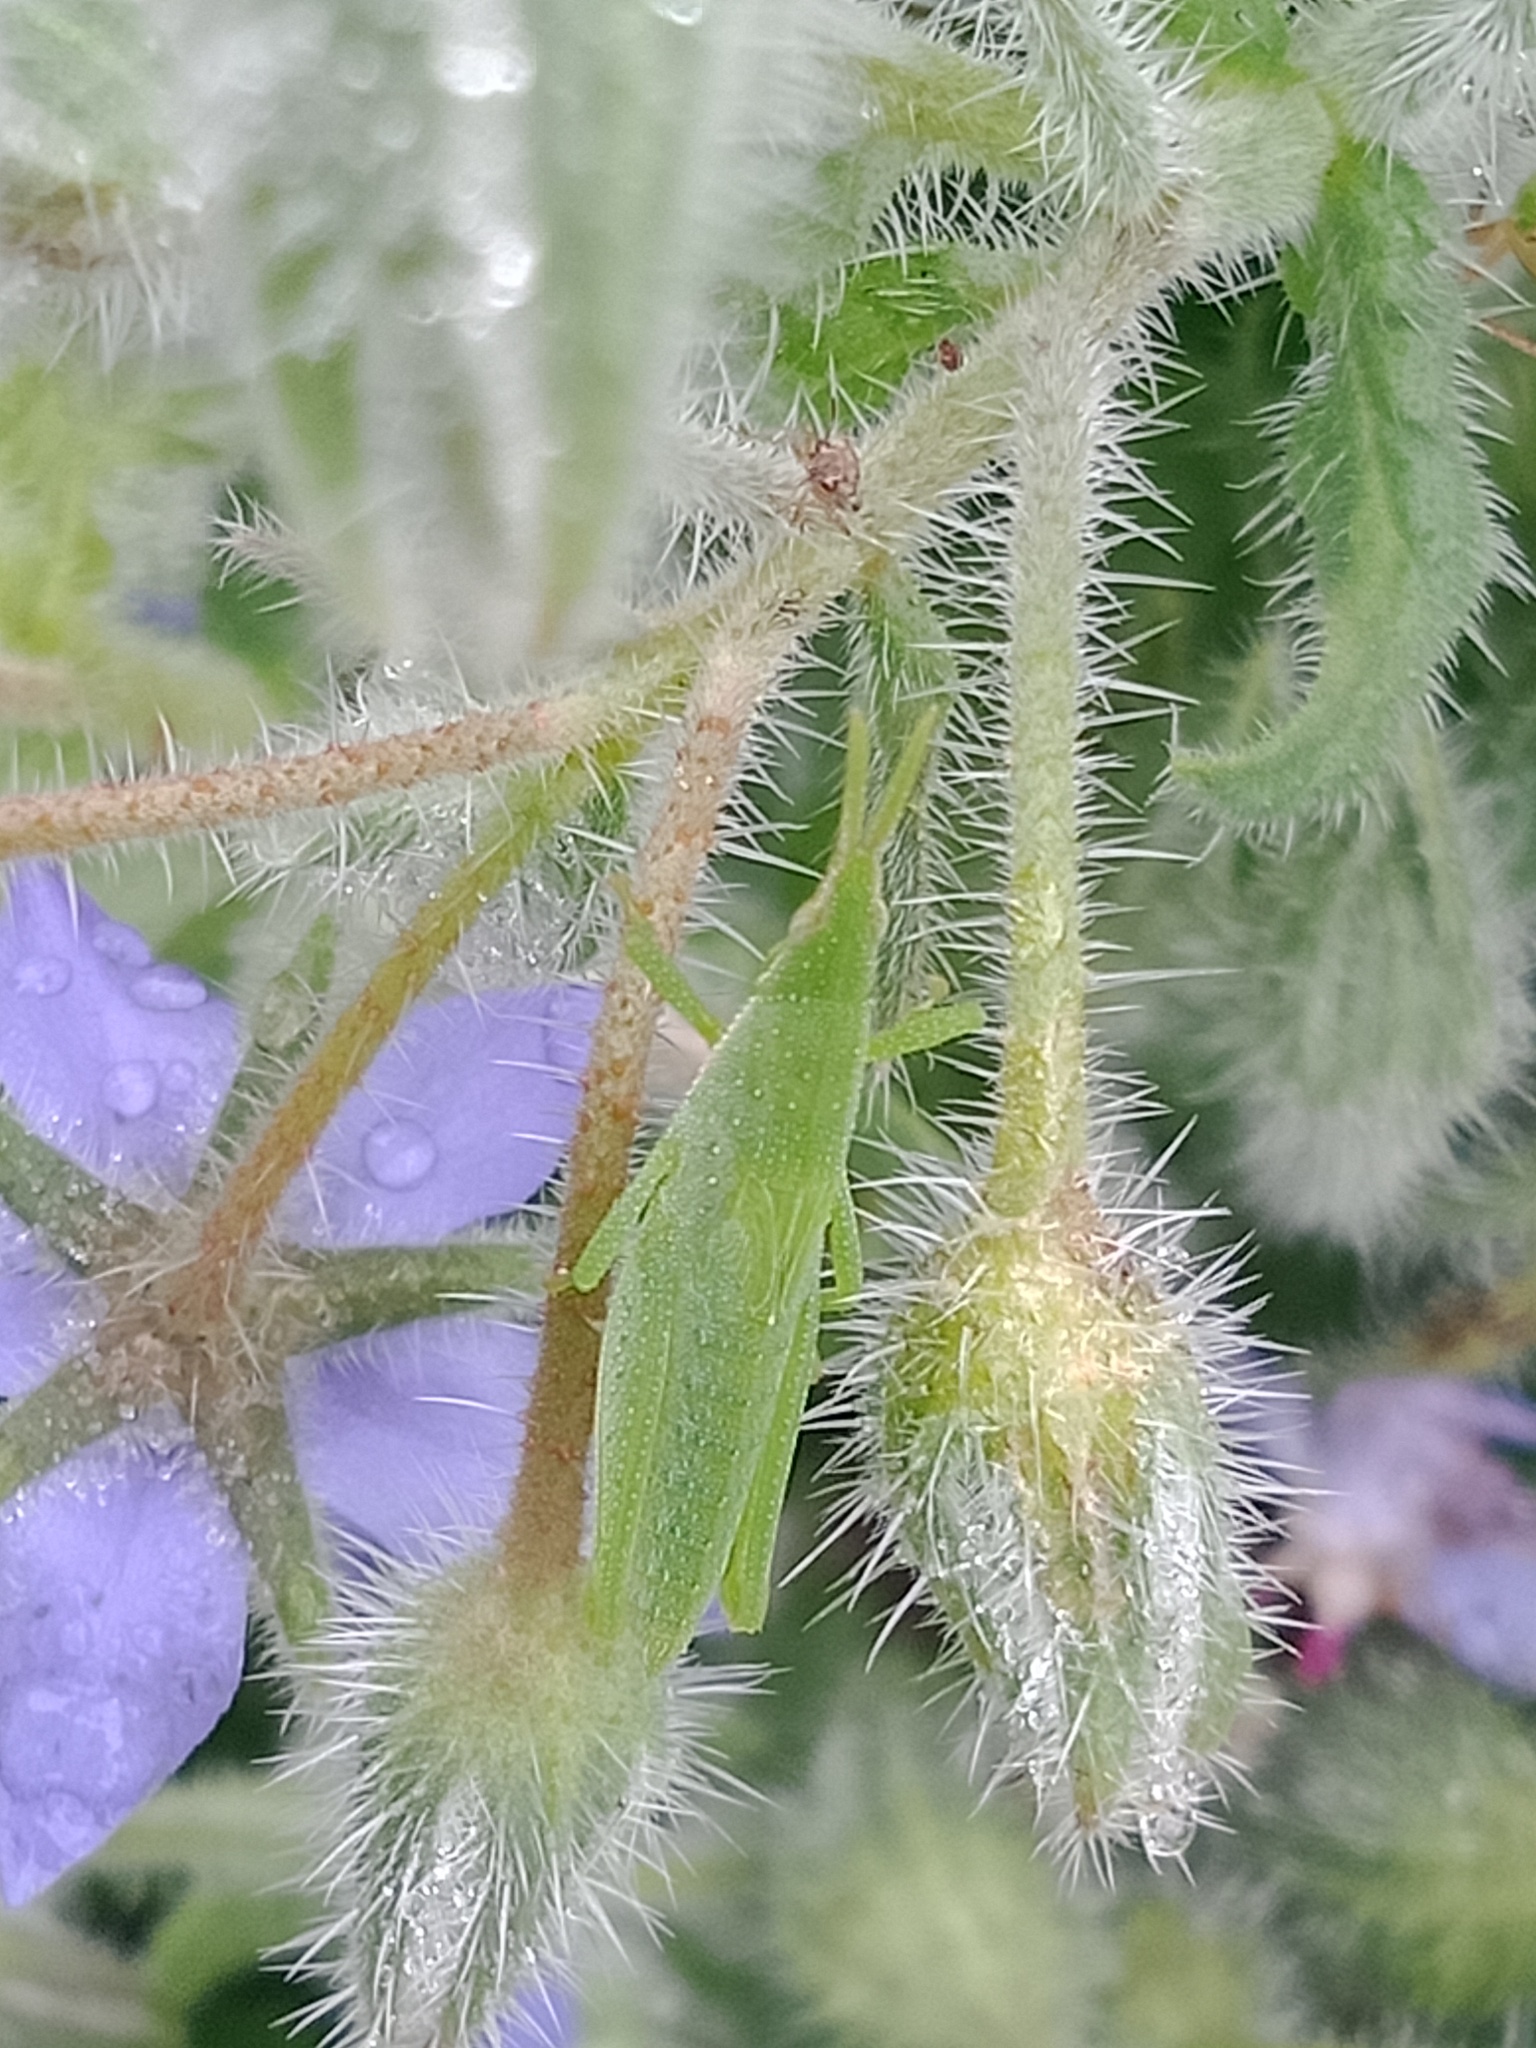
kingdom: Animalia
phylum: Arthropoda
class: Insecta
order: Orthoptera
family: Pyrgomorphidae
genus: Atractomorpha
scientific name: Atractomorpha australis
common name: Australian grass pyrgomorph
